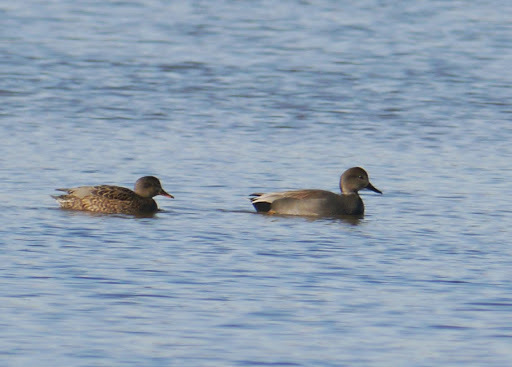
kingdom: Animalia
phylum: Chordata
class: Aves
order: Anseriformes
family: Anatidae
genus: Mareca
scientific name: Mareca strepera
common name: Gadwall
